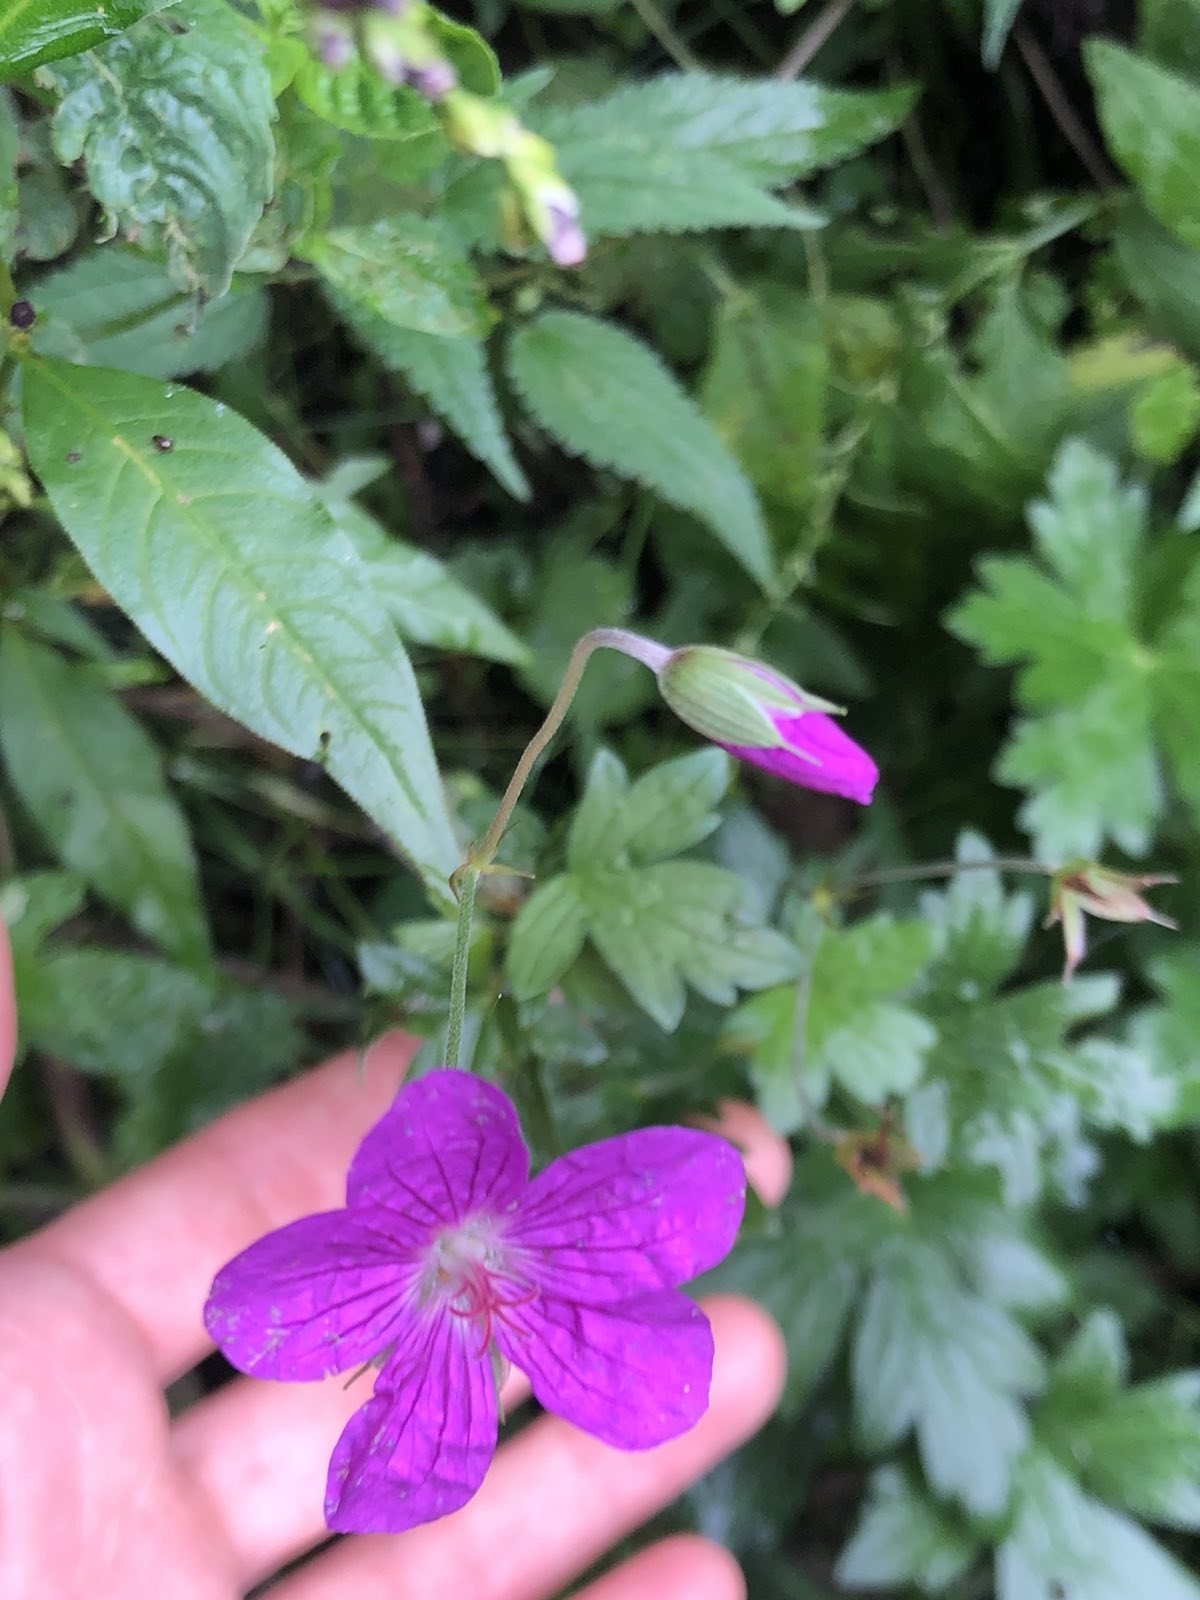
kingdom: Plantae
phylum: Tracheophyta
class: Magnoliopsida
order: Geraniales
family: Geraniaceae
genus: Geranium
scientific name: Geranium palustre
